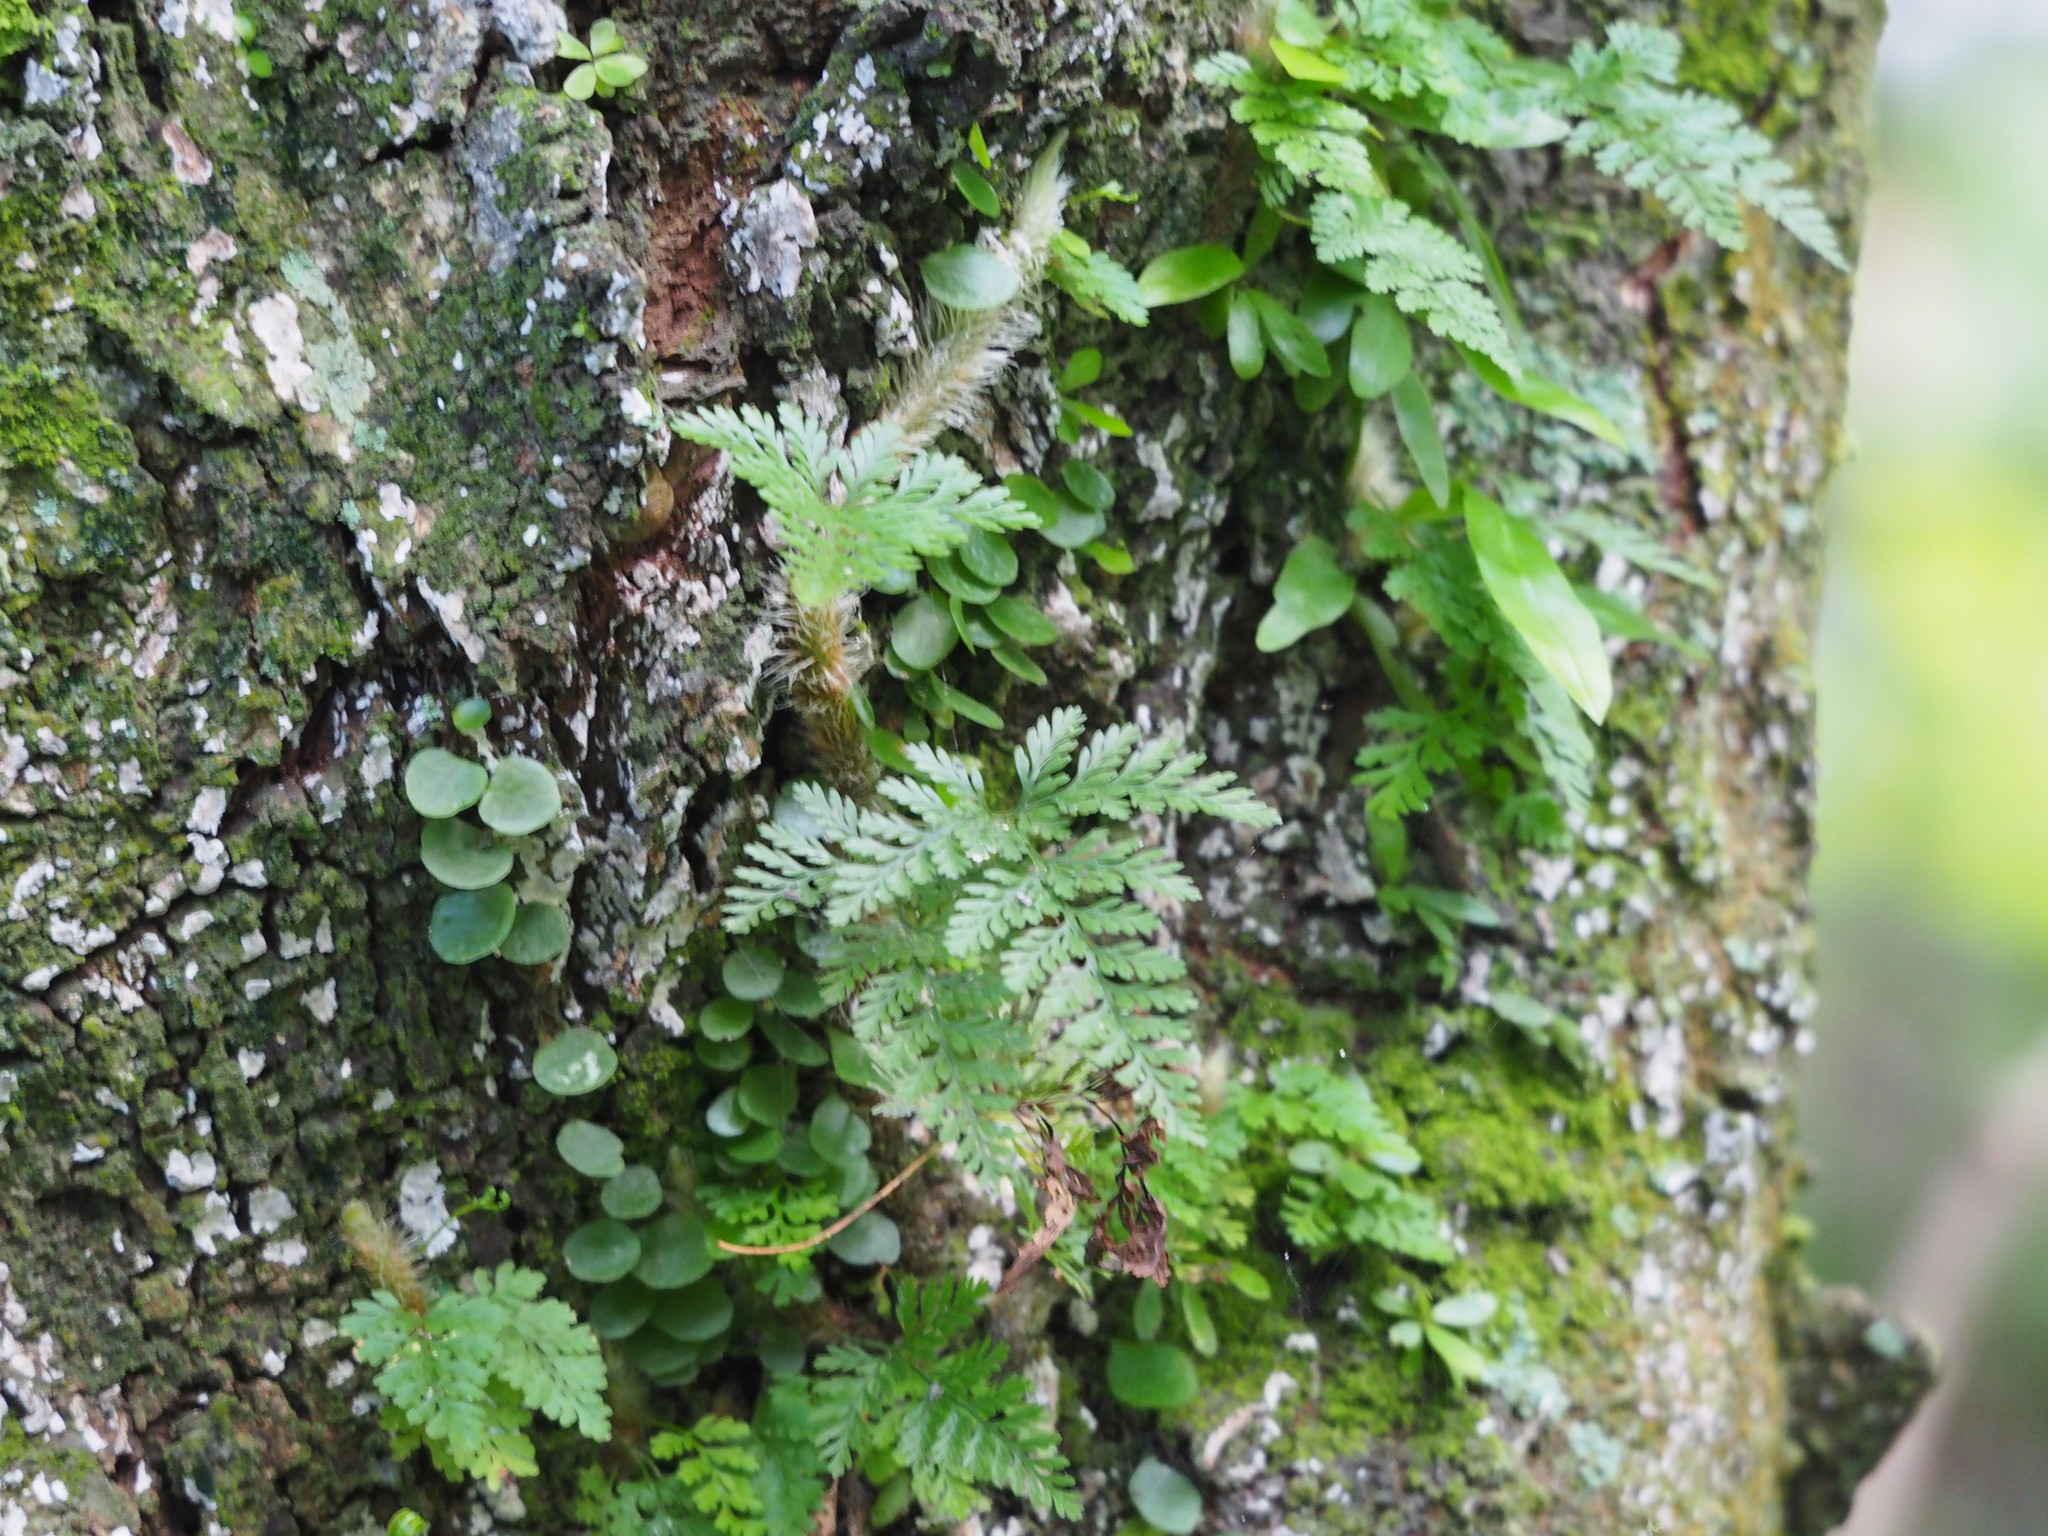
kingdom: Plantae
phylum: Tracheophyta
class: Polypodiopsida
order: Polypodiales
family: Davalliaceae
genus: Davallia
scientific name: Davallia griffithiana
